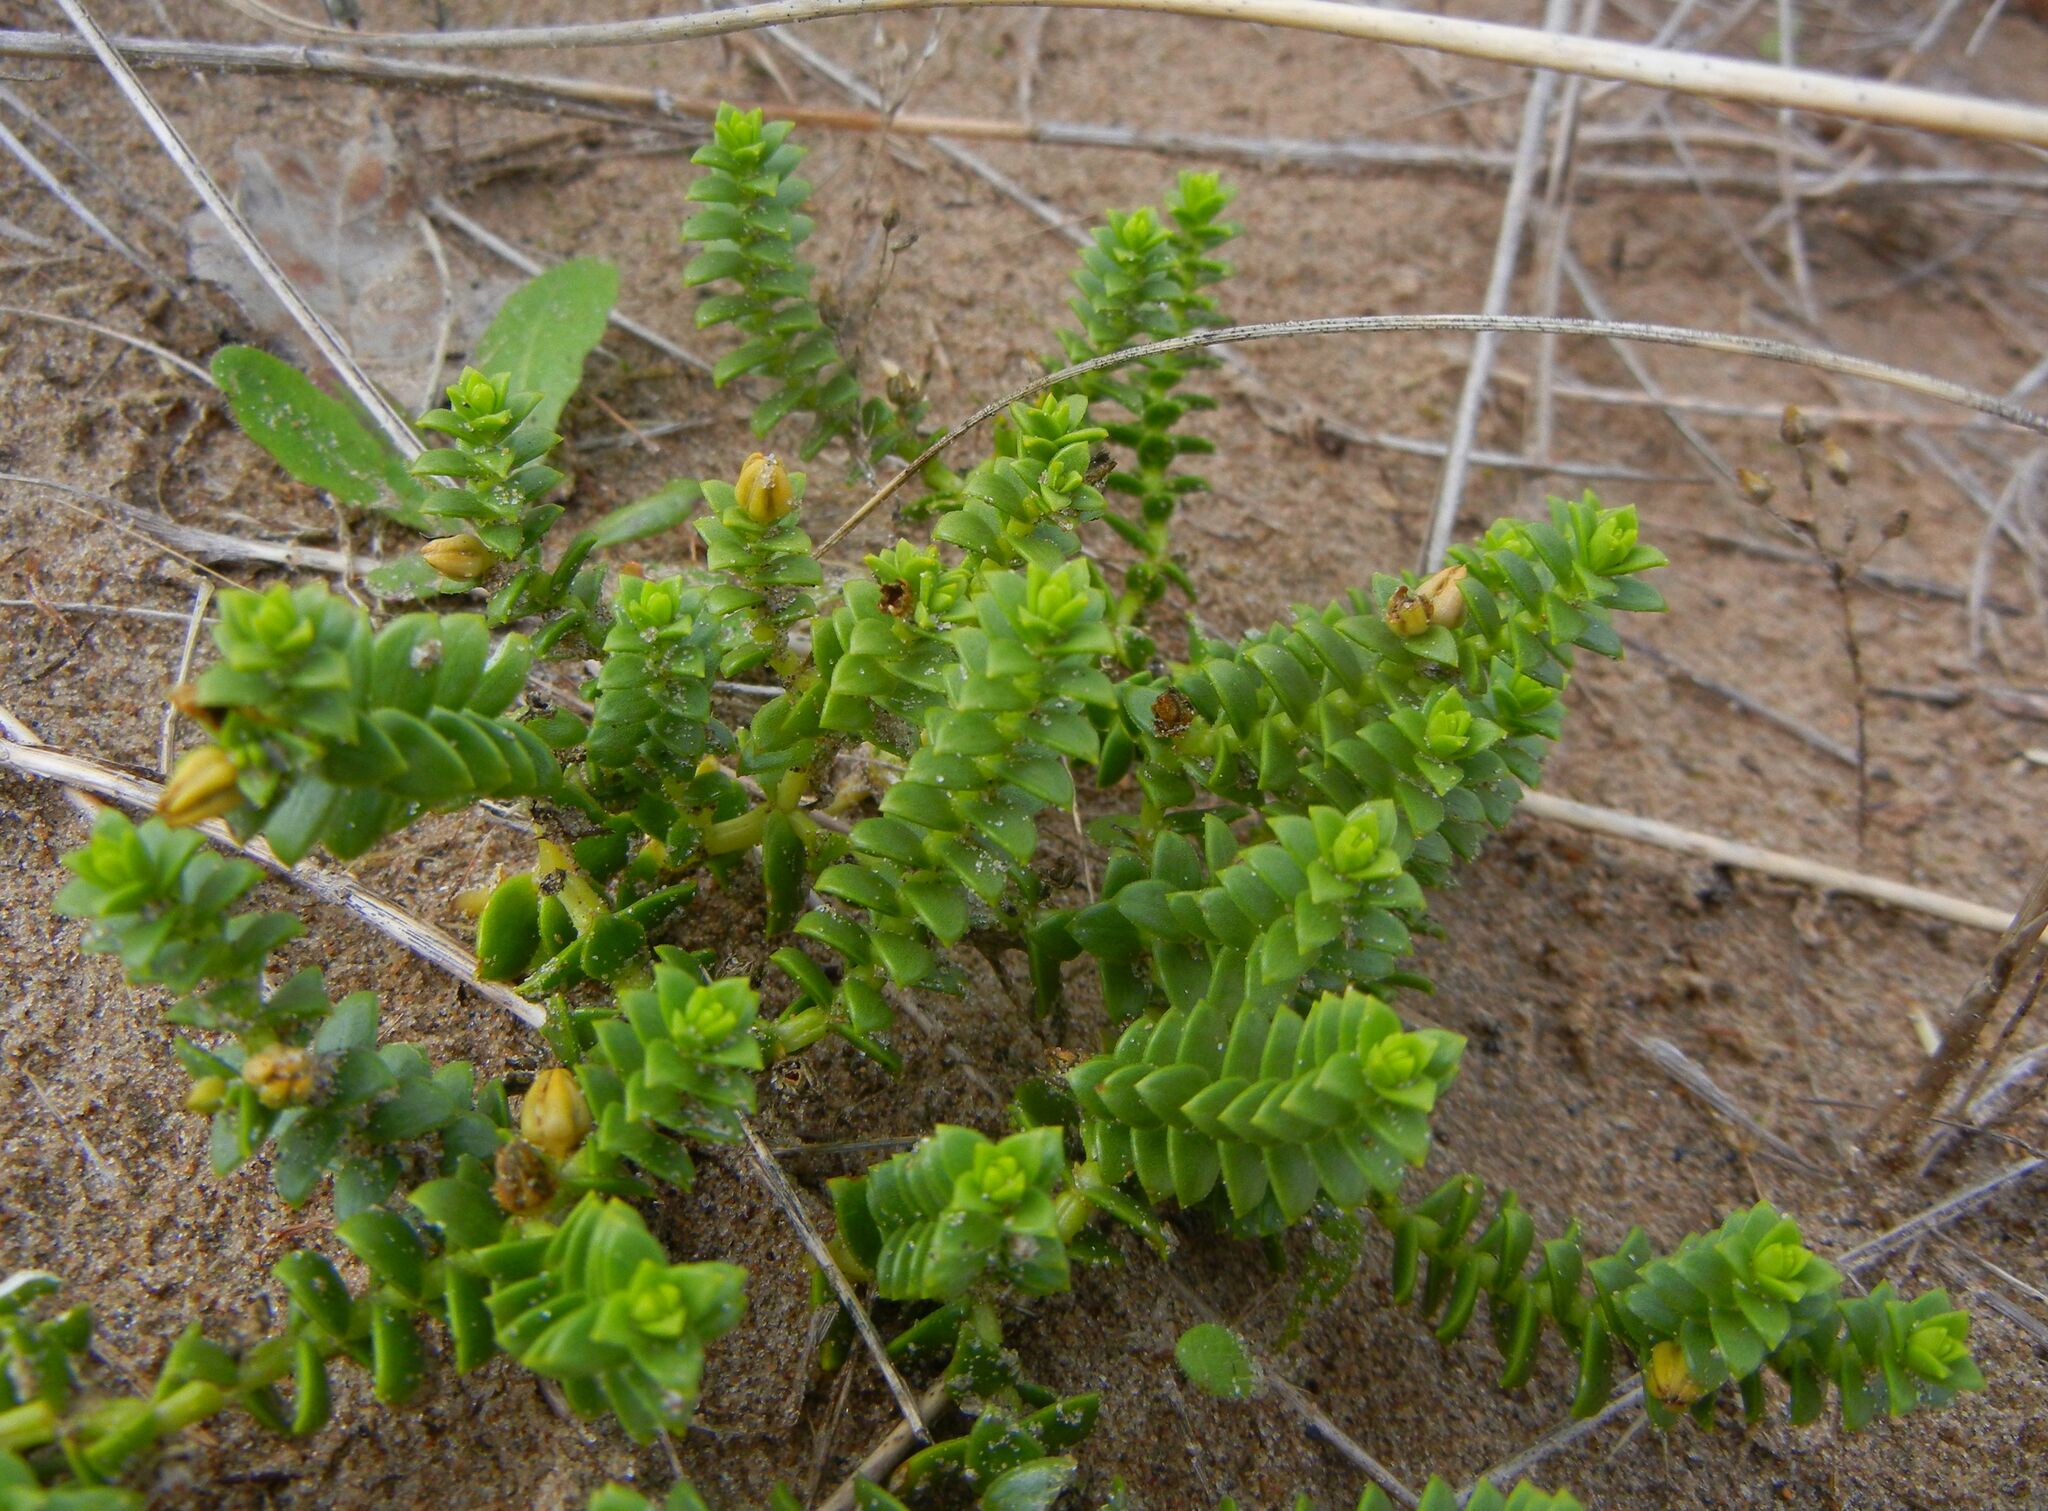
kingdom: Plantae
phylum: Tracheophyta
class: Magnoliopsida
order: Caryophyllales
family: Caryophyllaceae
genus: Honckenya
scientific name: Honckenya peploides
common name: Sea sandwort
